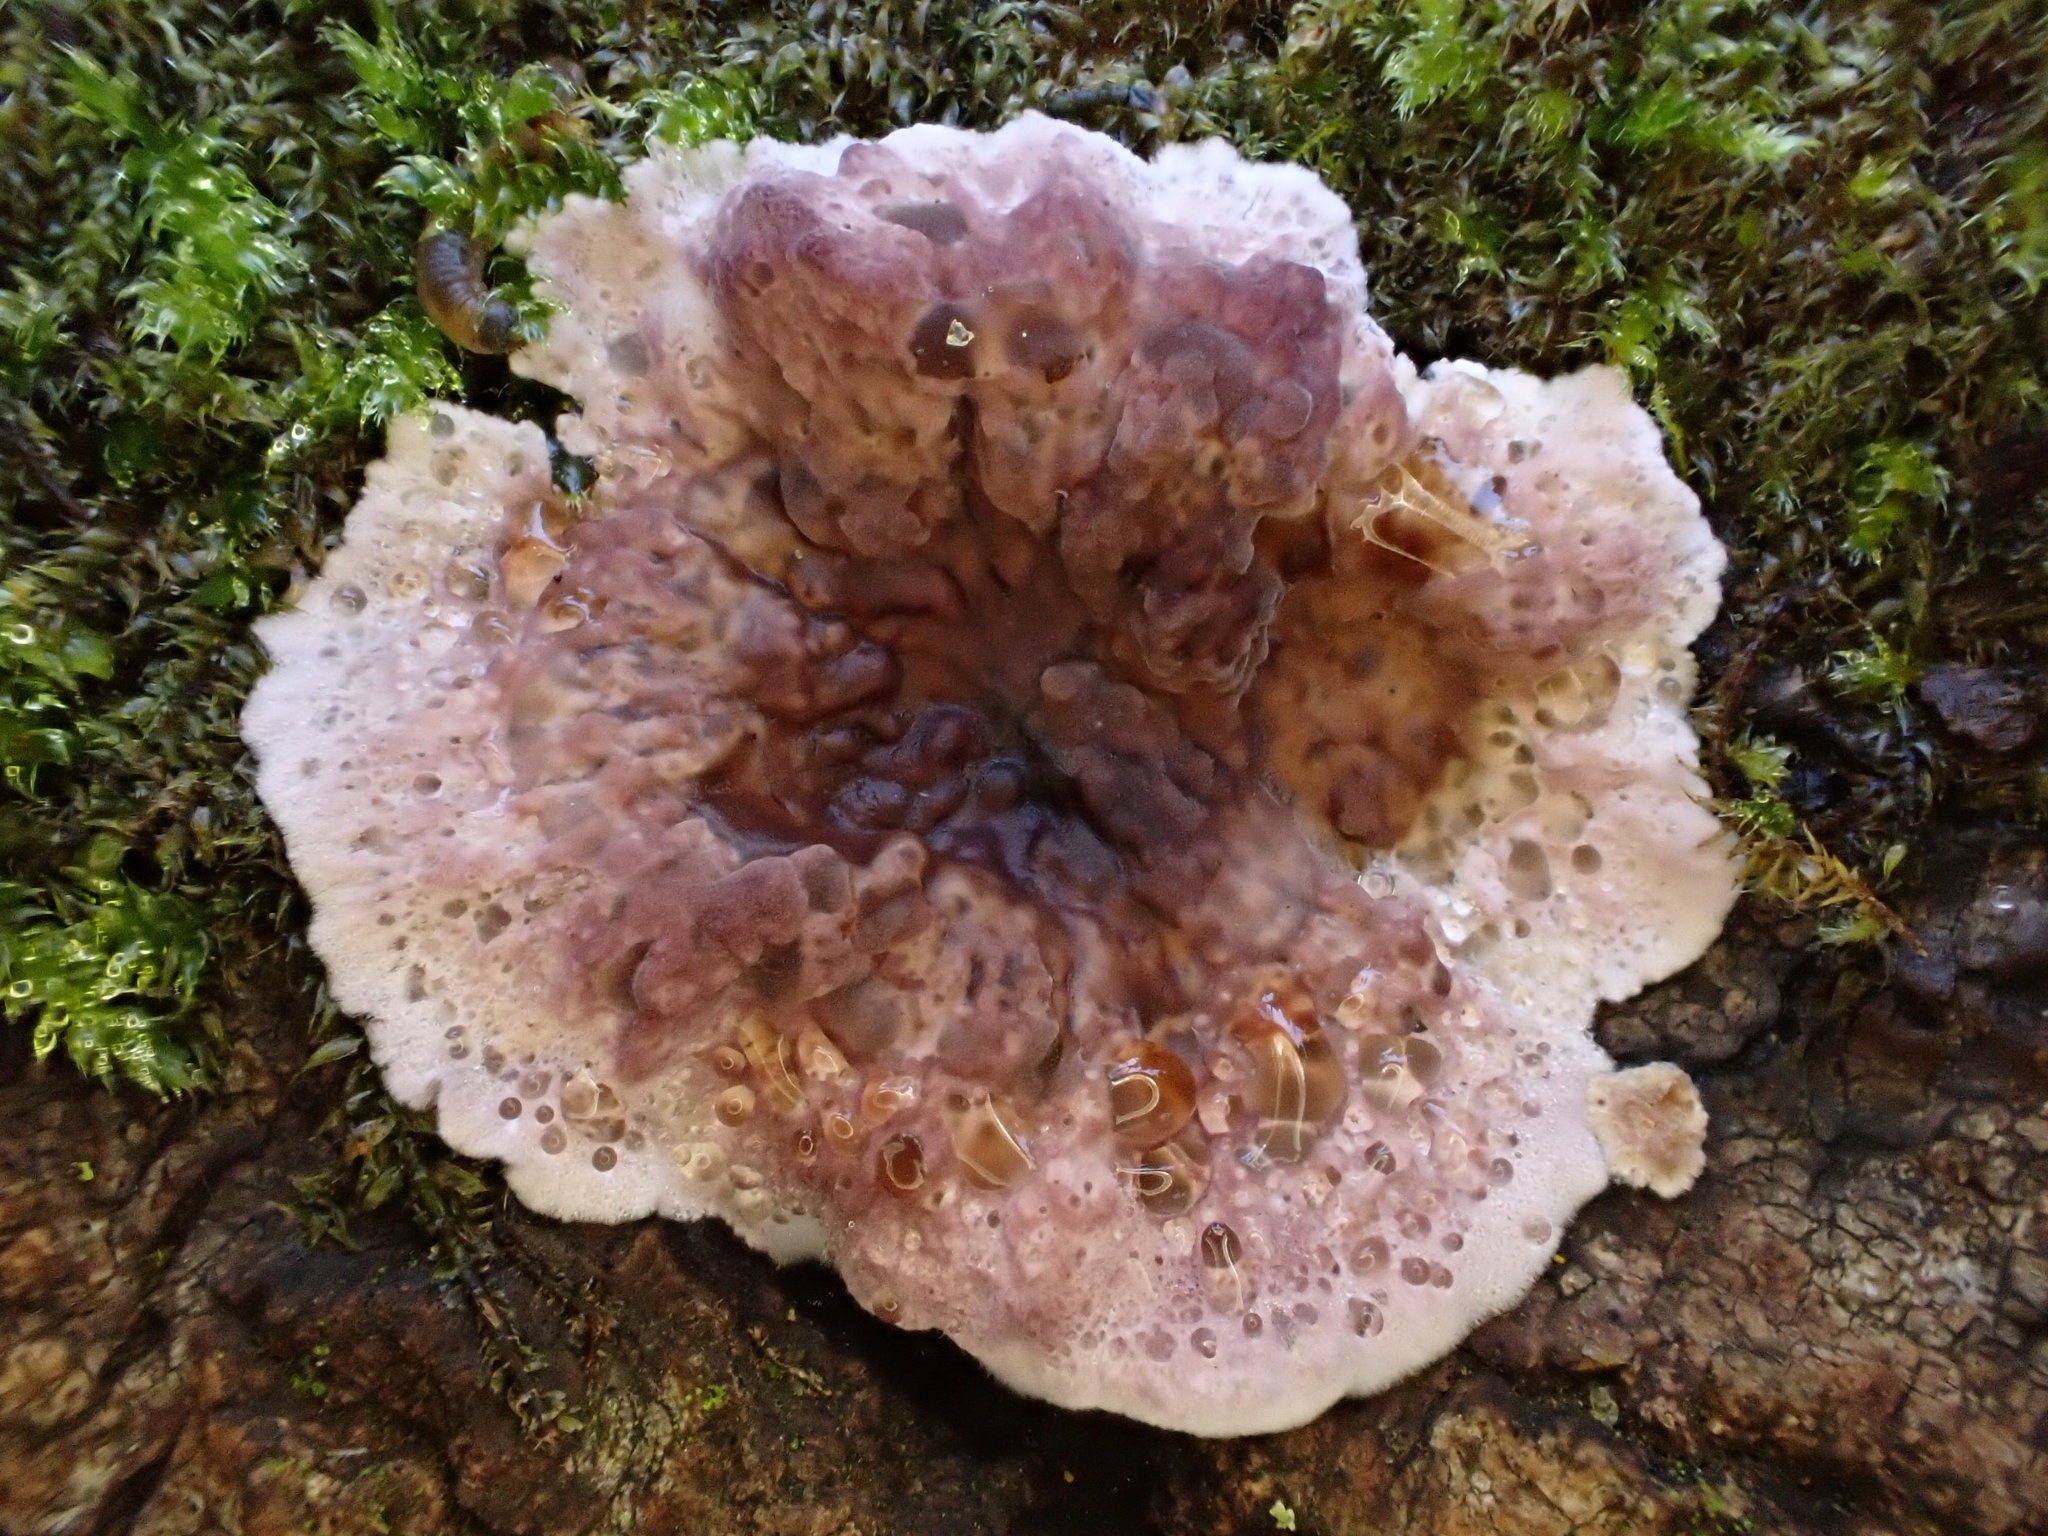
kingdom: Fungi
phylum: Basidiomycota
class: Agaricomycetes
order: Agaricales
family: Cyphellaceae
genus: Chondrostereum
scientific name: Chondrostereum purpureum
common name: Silver leaf disease
